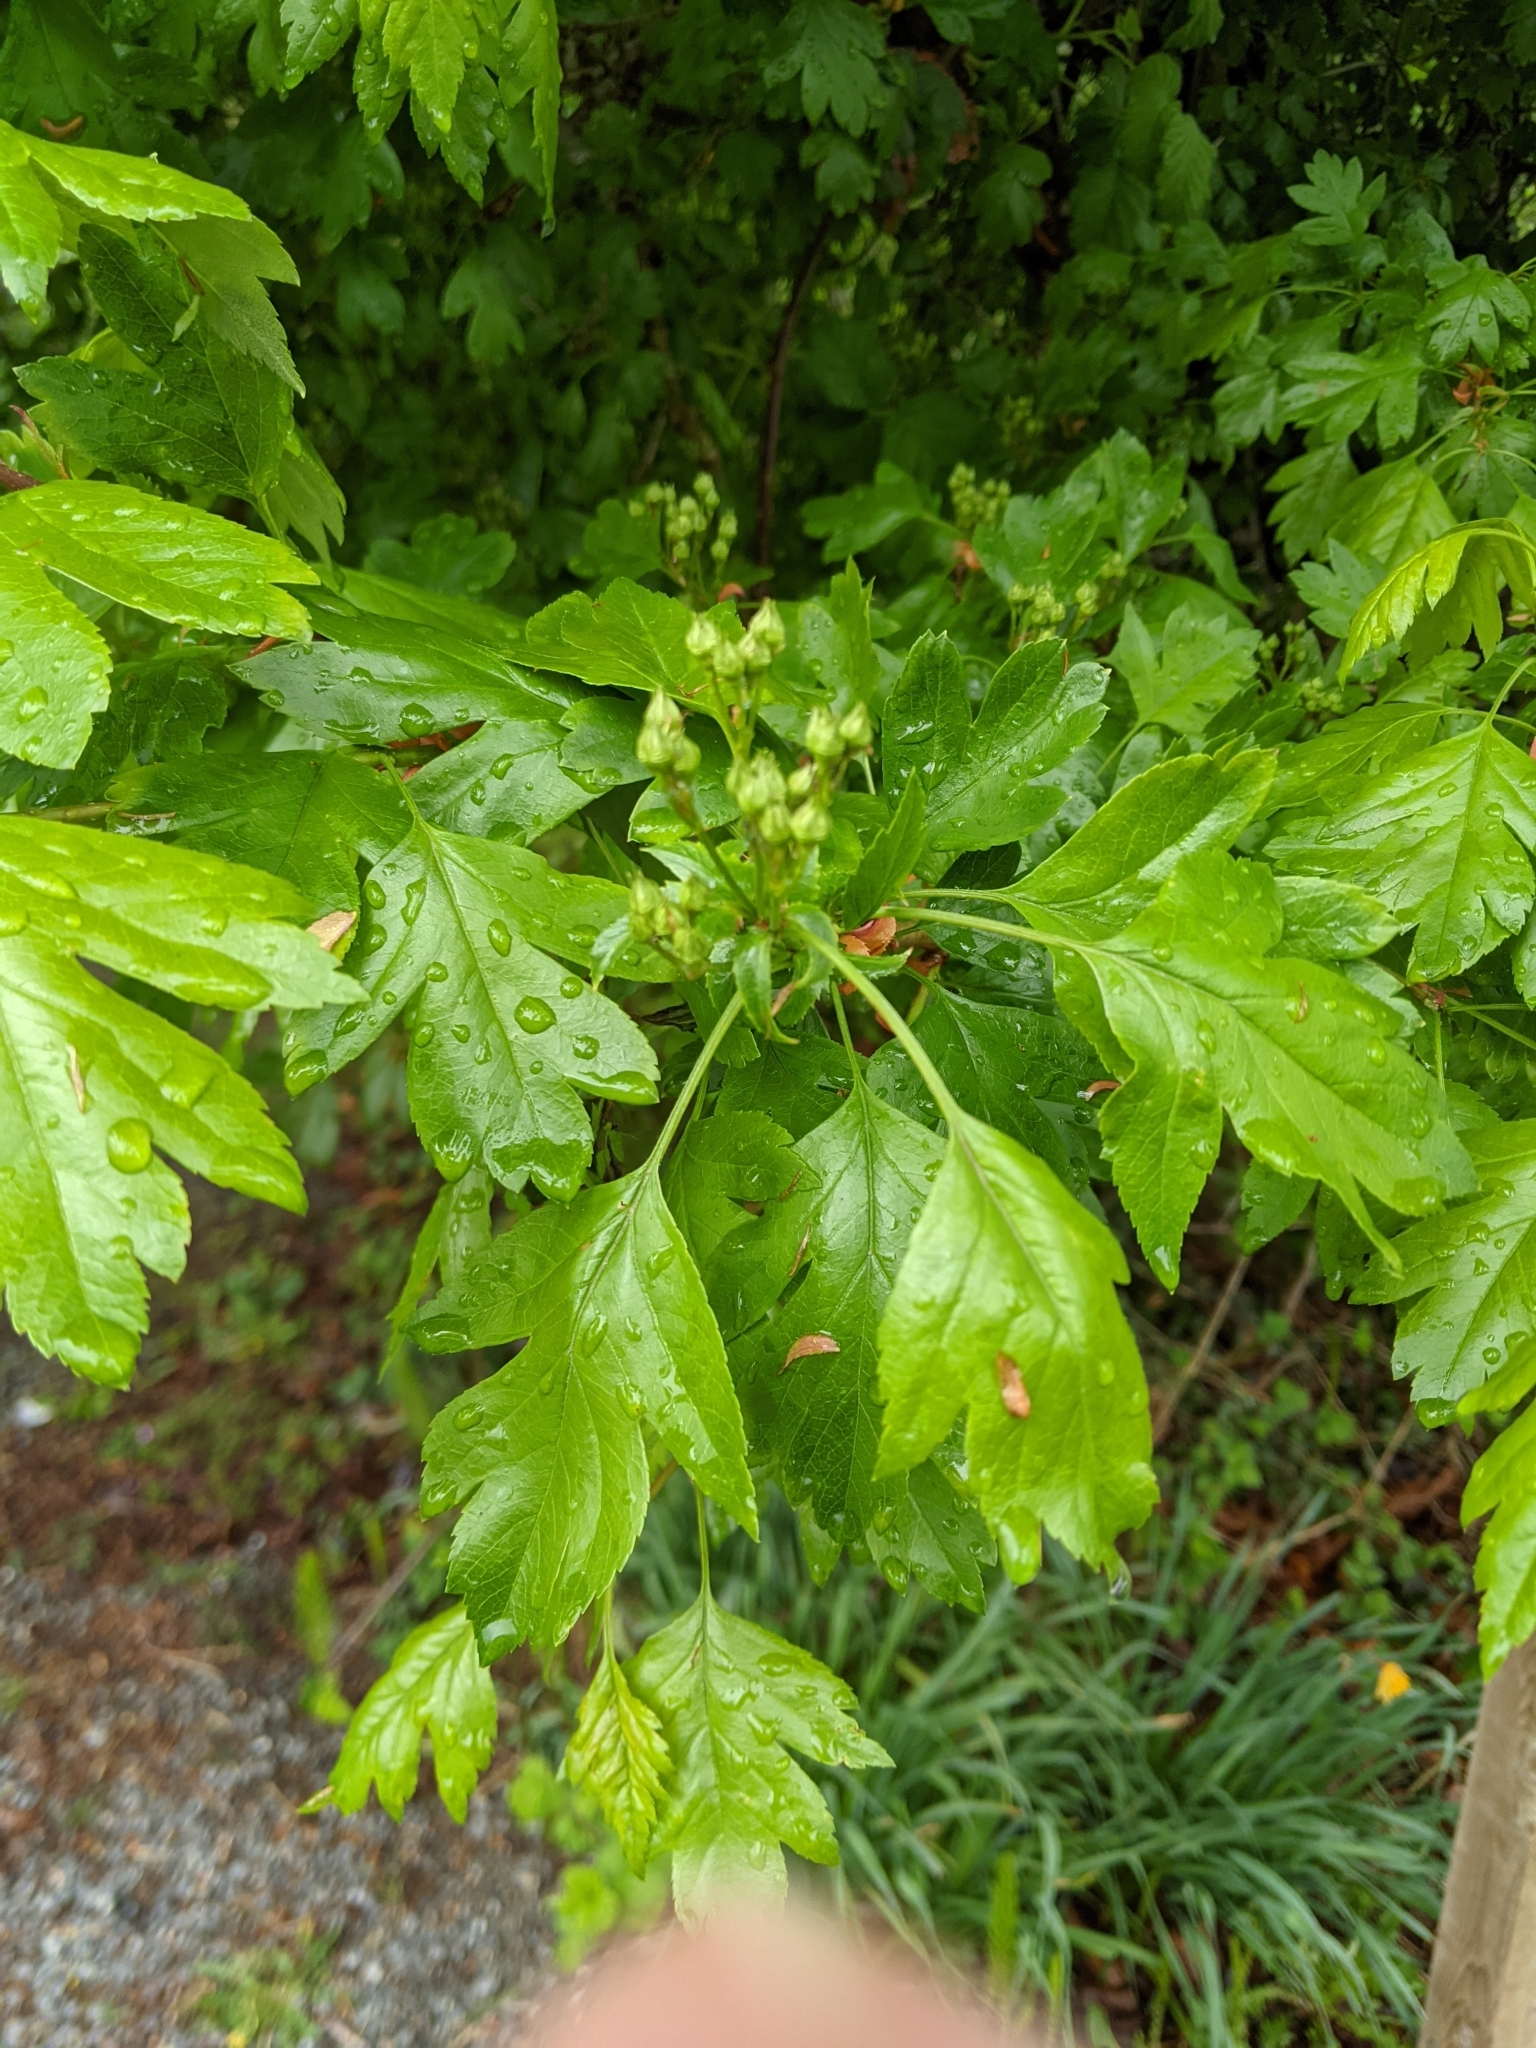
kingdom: Plantae
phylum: Tracheophyta
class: Magnoliopsida
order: Rosales
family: Rosaceae
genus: Crataegus
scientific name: Crataegus monogyna
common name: Hawthorn
